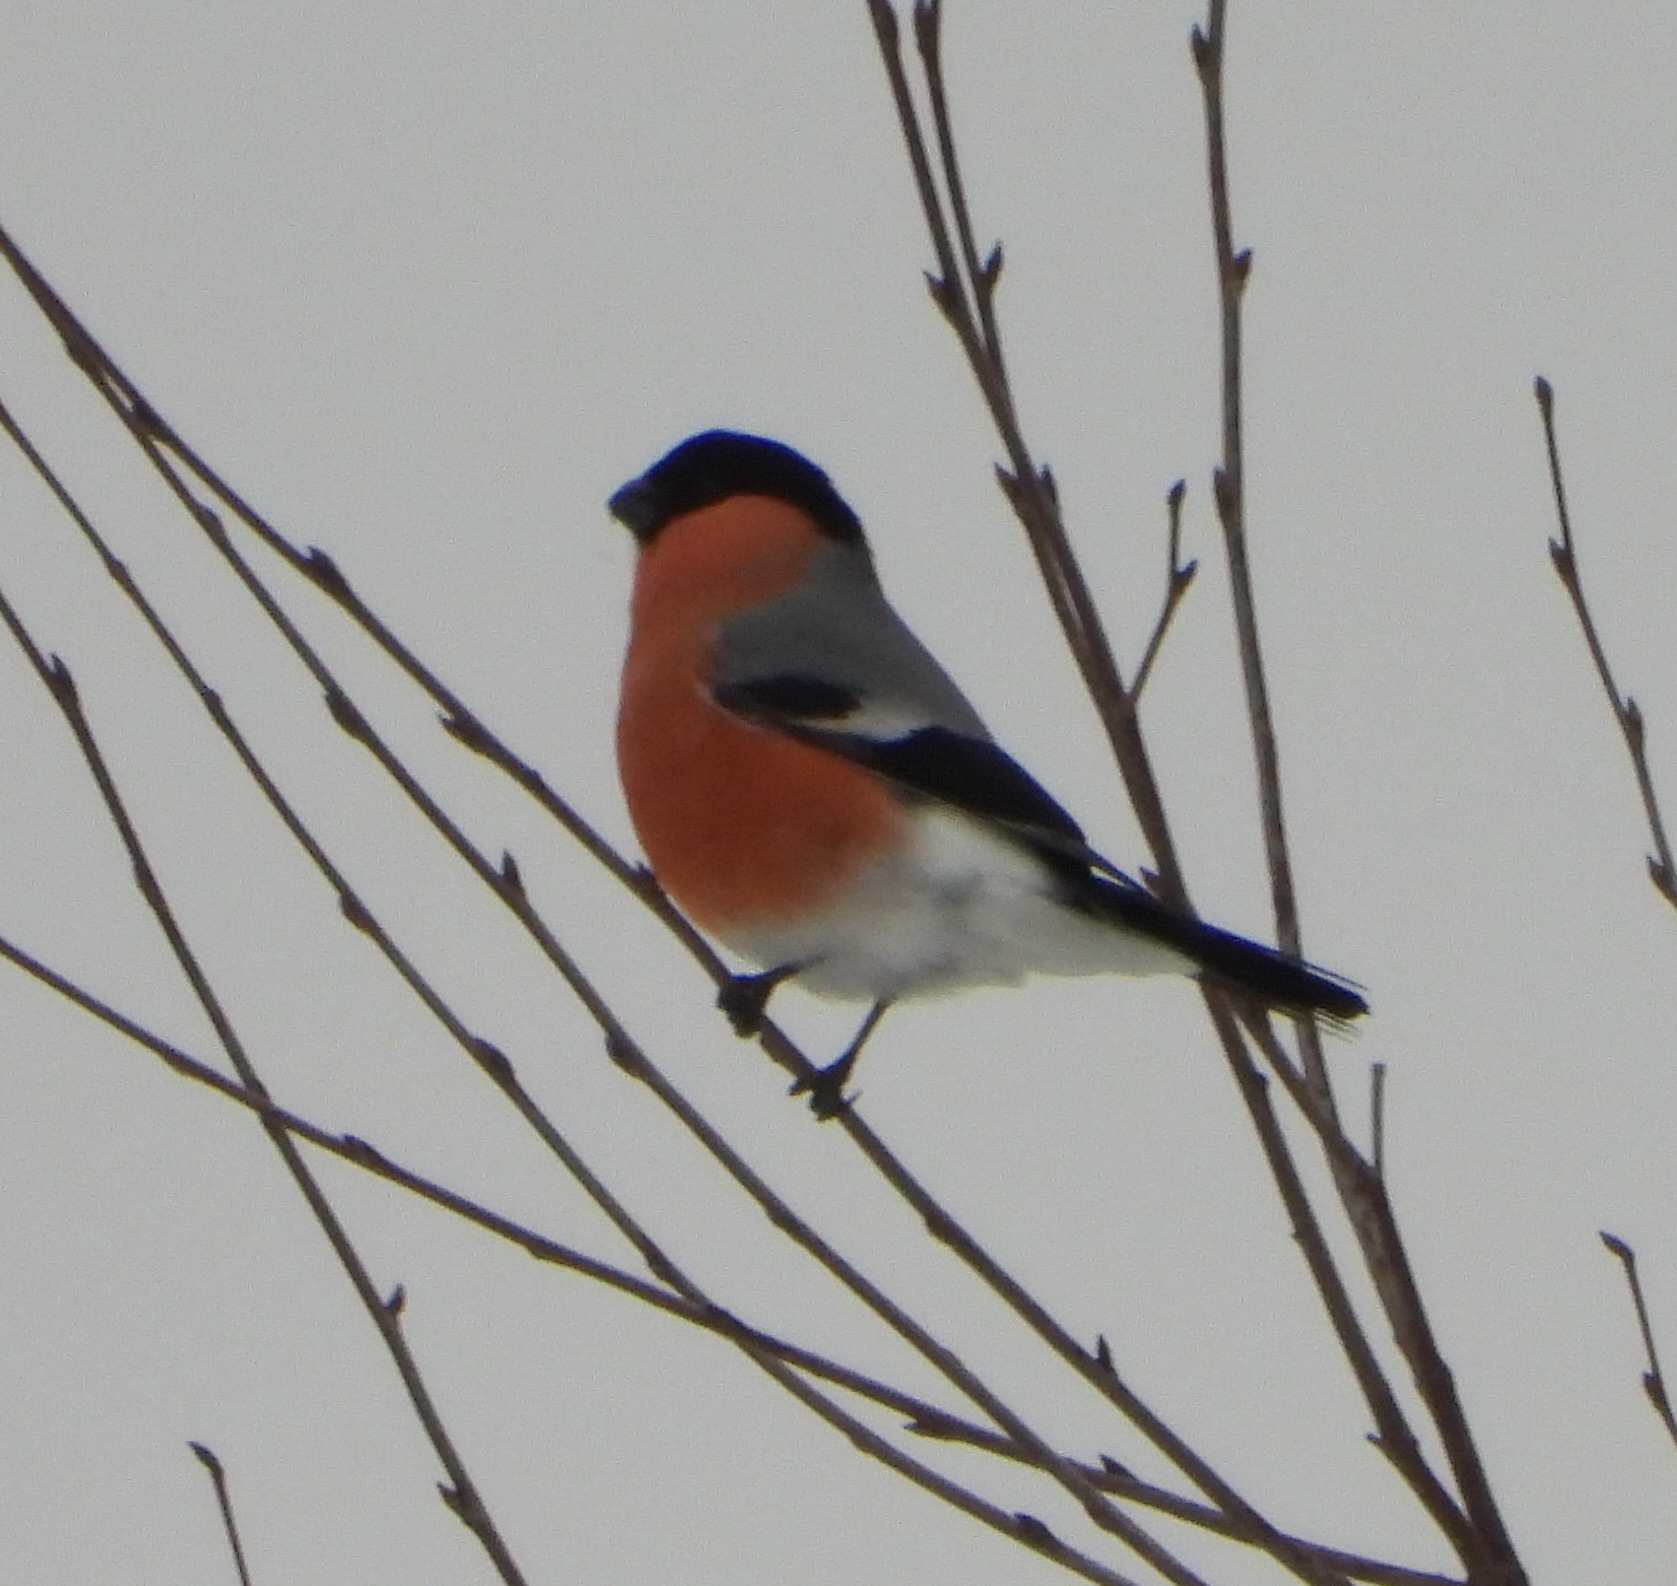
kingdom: Animalia
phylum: Chordata
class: Aves
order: Passeriformes
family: Fringillidae
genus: Pyrrhula
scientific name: Pyrrhula pyrrhula
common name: Eurasian bullfinch
